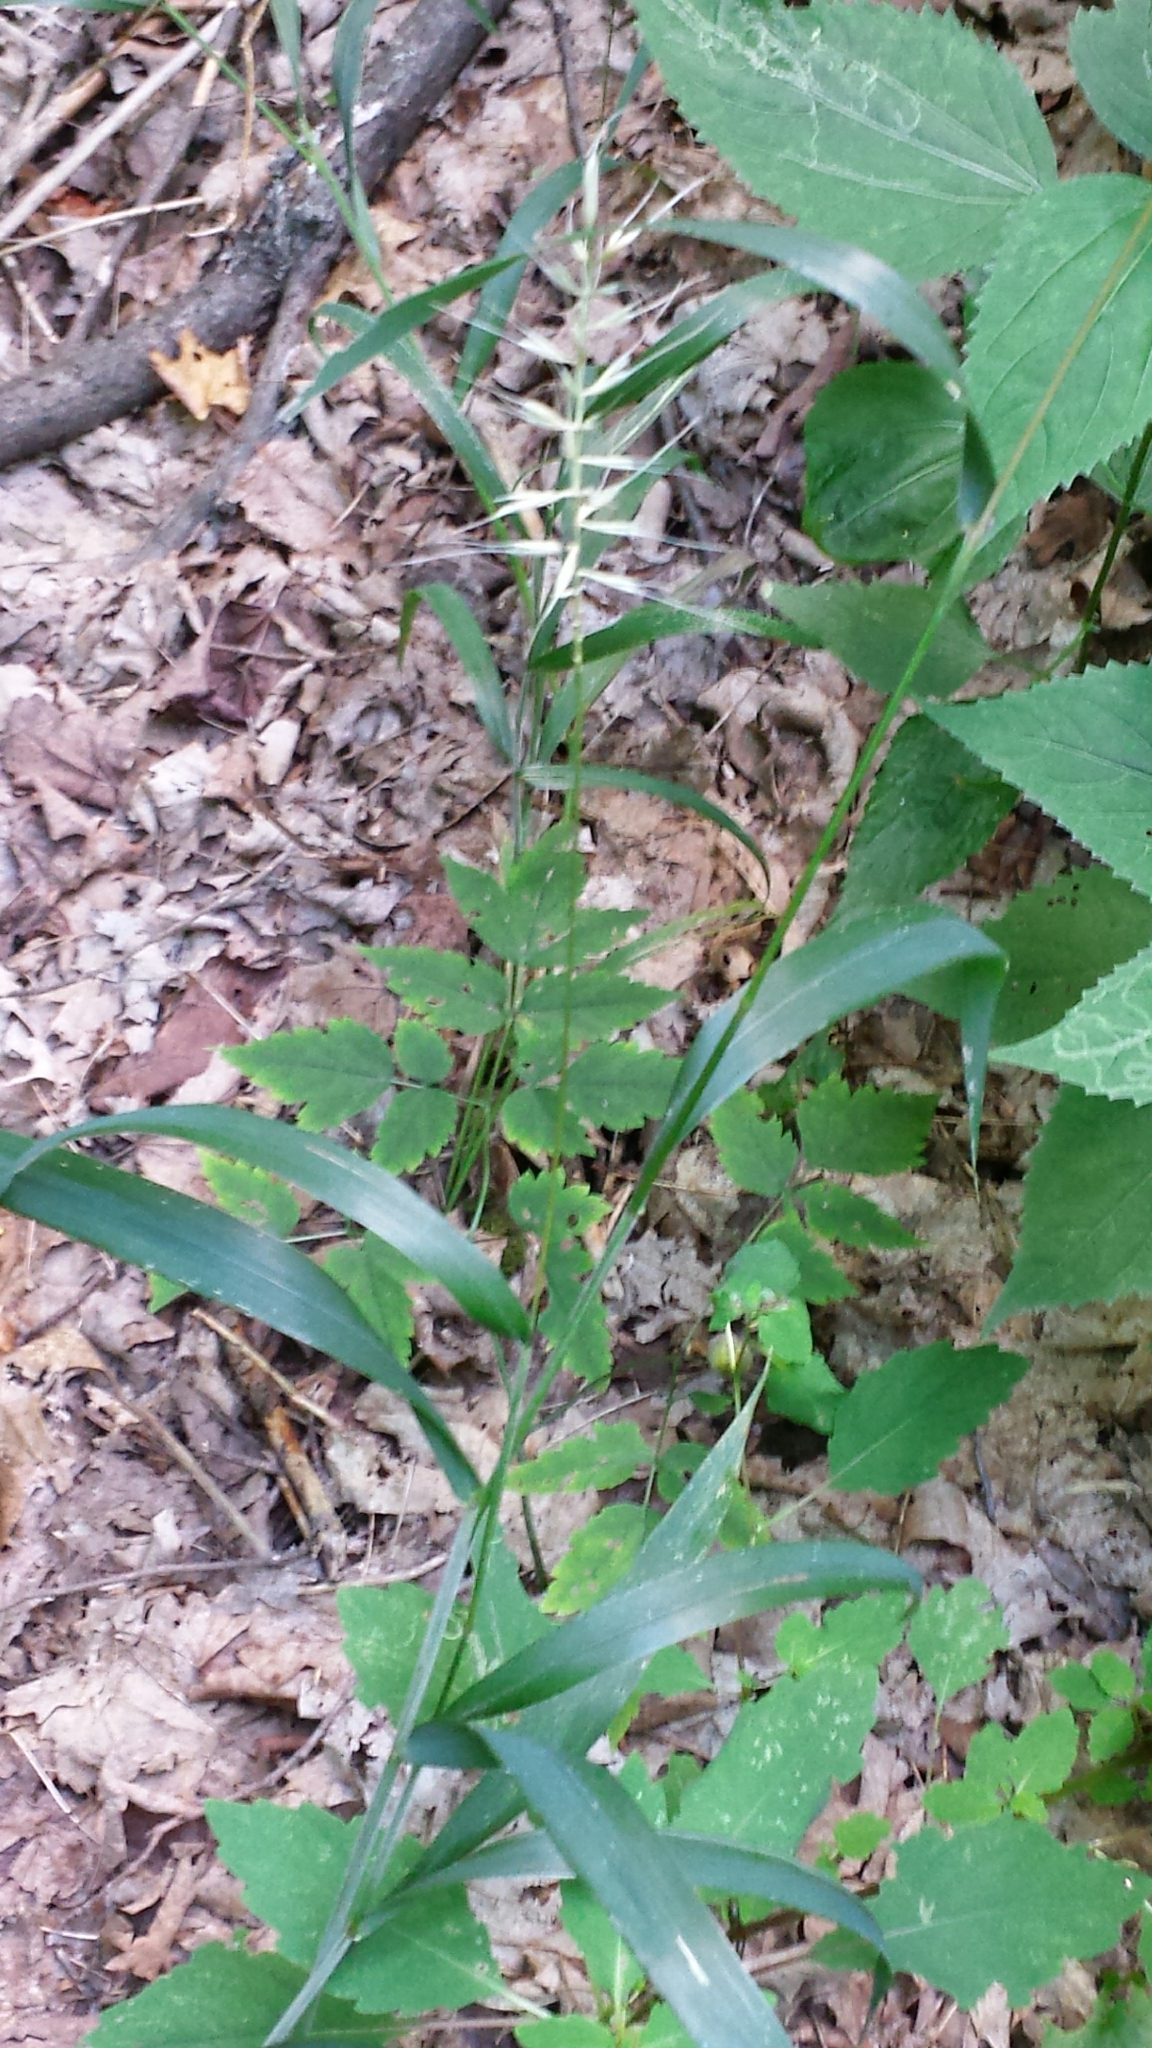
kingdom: Plantae
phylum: Tracheophyta
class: Liliopsida
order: Poales
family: Poaceae
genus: Elymus
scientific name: Elymus hystrix
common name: Bottlebrush grass
